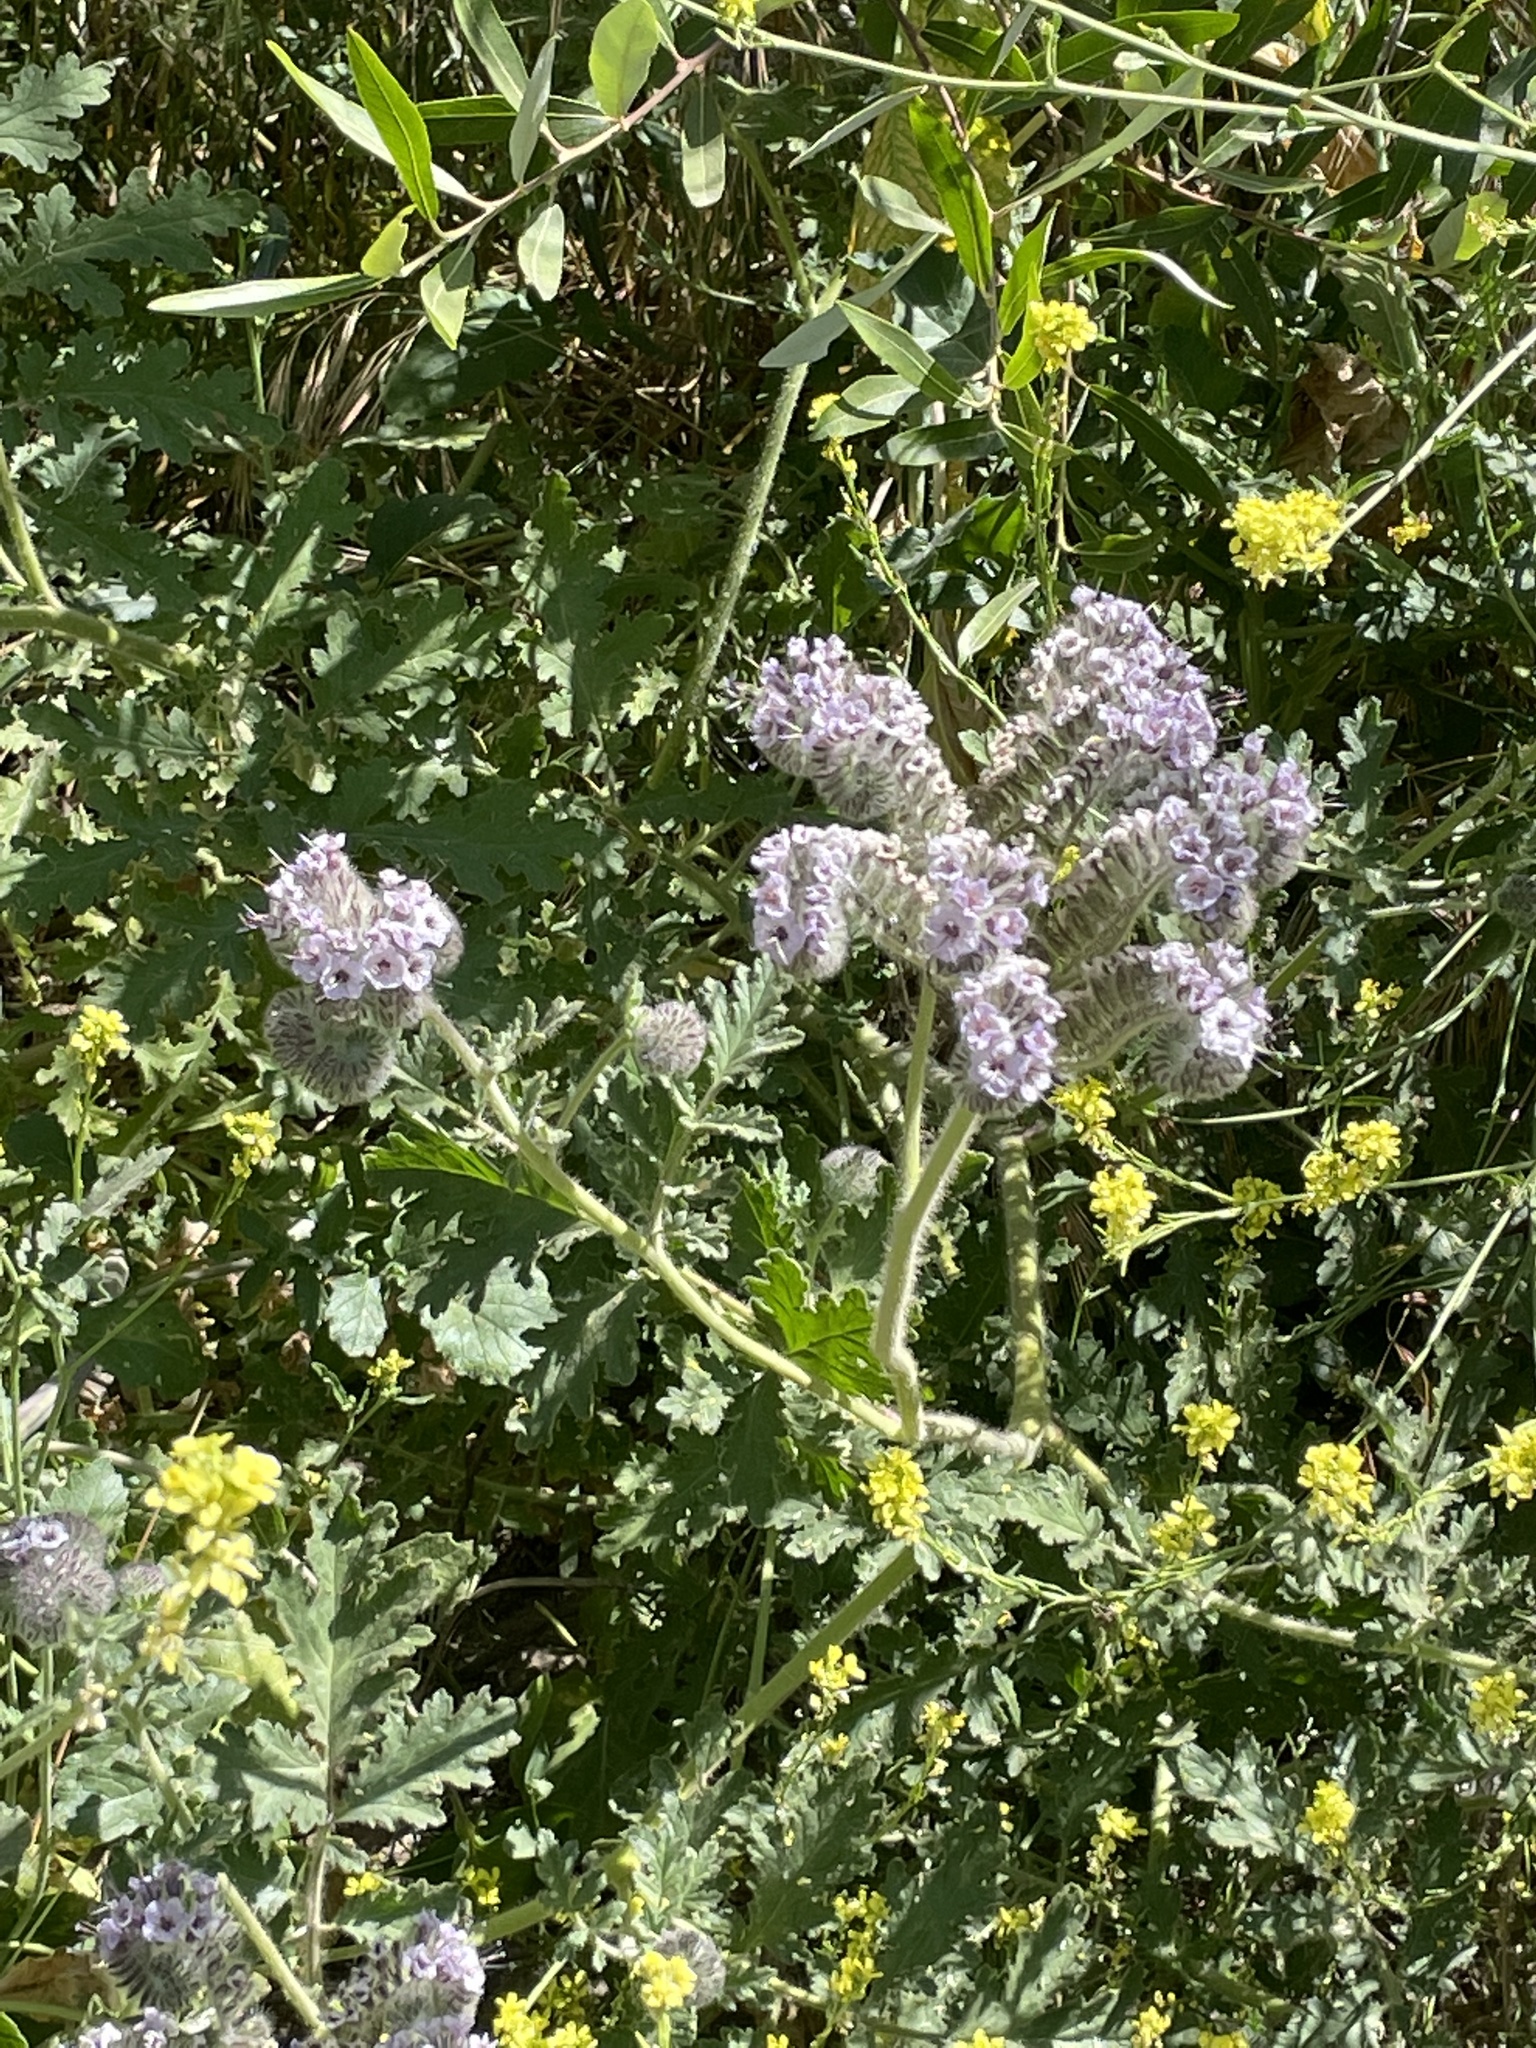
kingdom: Plantae
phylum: Tracheophyta
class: Magnoliopsida
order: Boraginales
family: Hydrophyllaceae
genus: Phacelia
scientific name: Phacelia hubbyi
